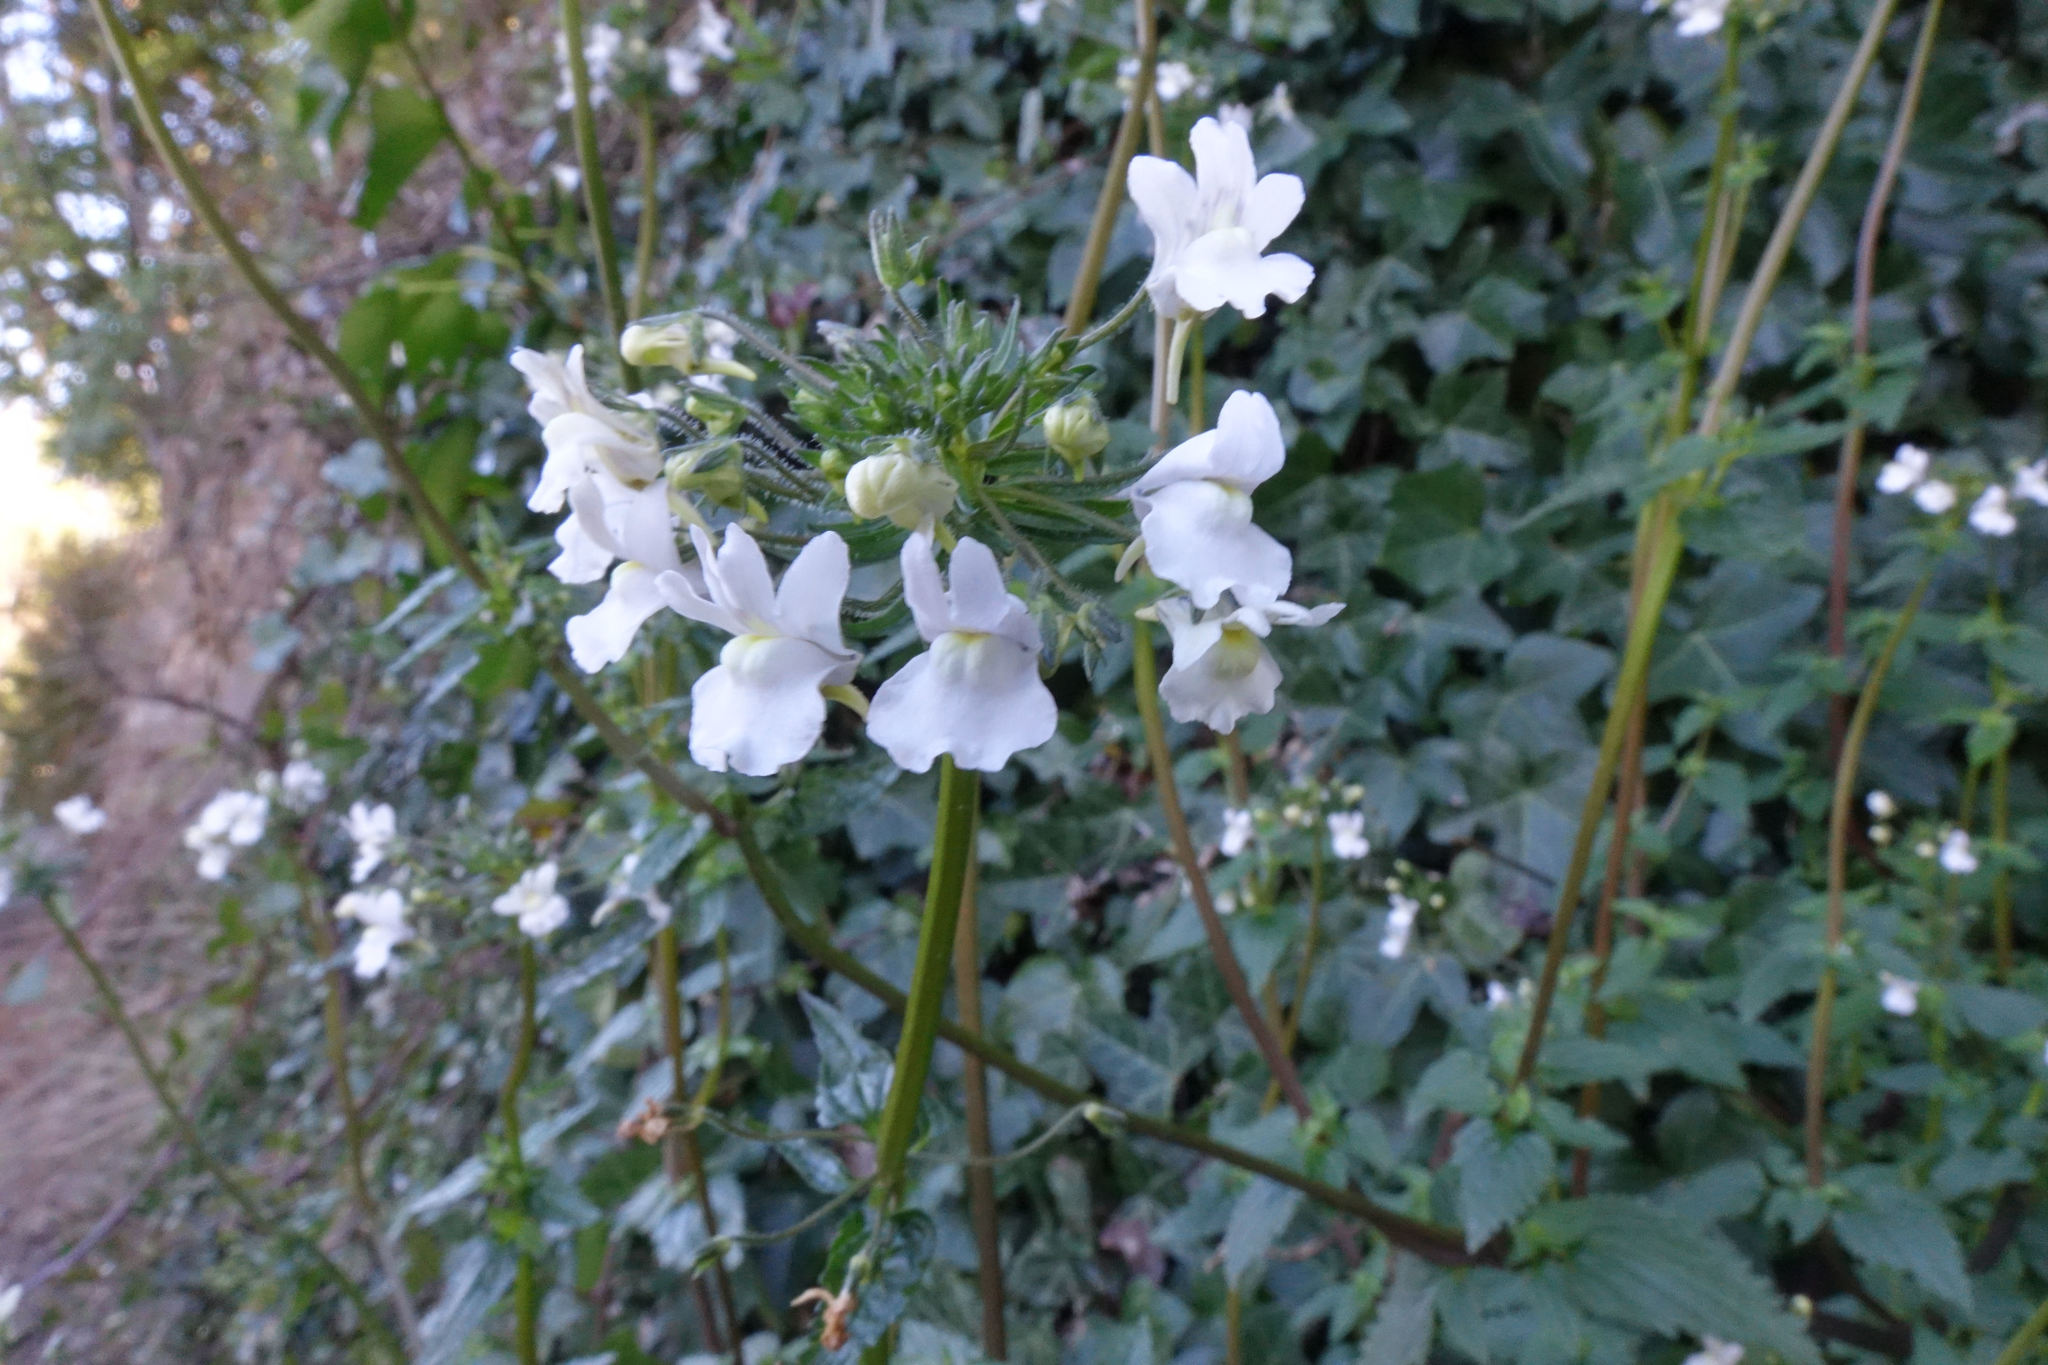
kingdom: Plantae
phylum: Tracheophyta
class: Magnoliopsida
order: Lamiales
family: Scrophulariaceae
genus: Nemesia
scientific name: Nemesia floribunda
